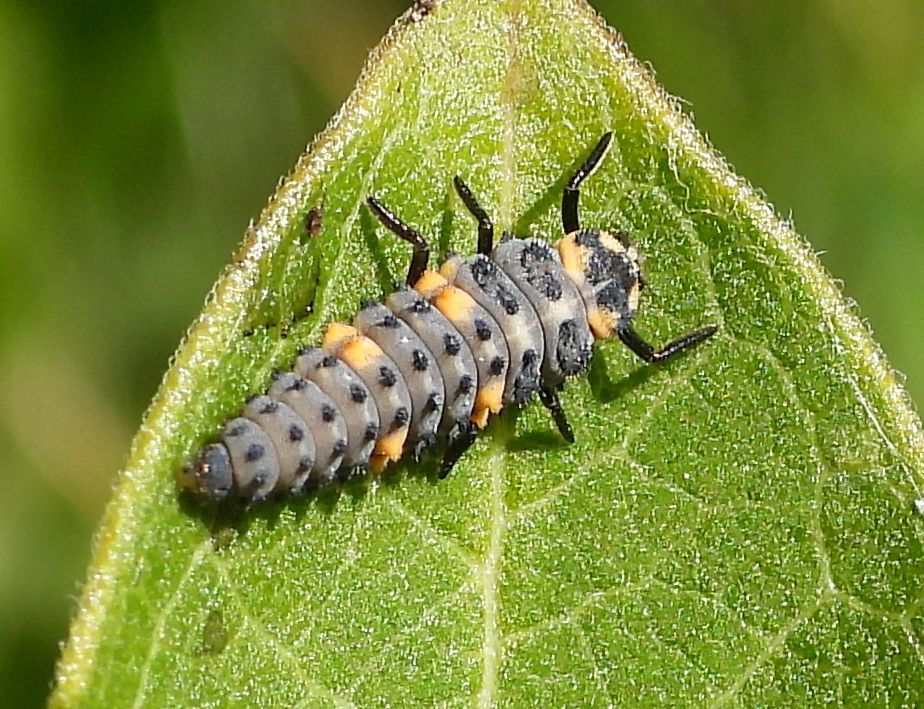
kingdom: Animalia
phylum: Arthropoda
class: Insecta
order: Coleoptera
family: Coccinellidae
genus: Coccinella
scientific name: Coccinella septempunctata
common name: Sevenspotted lady beetle
